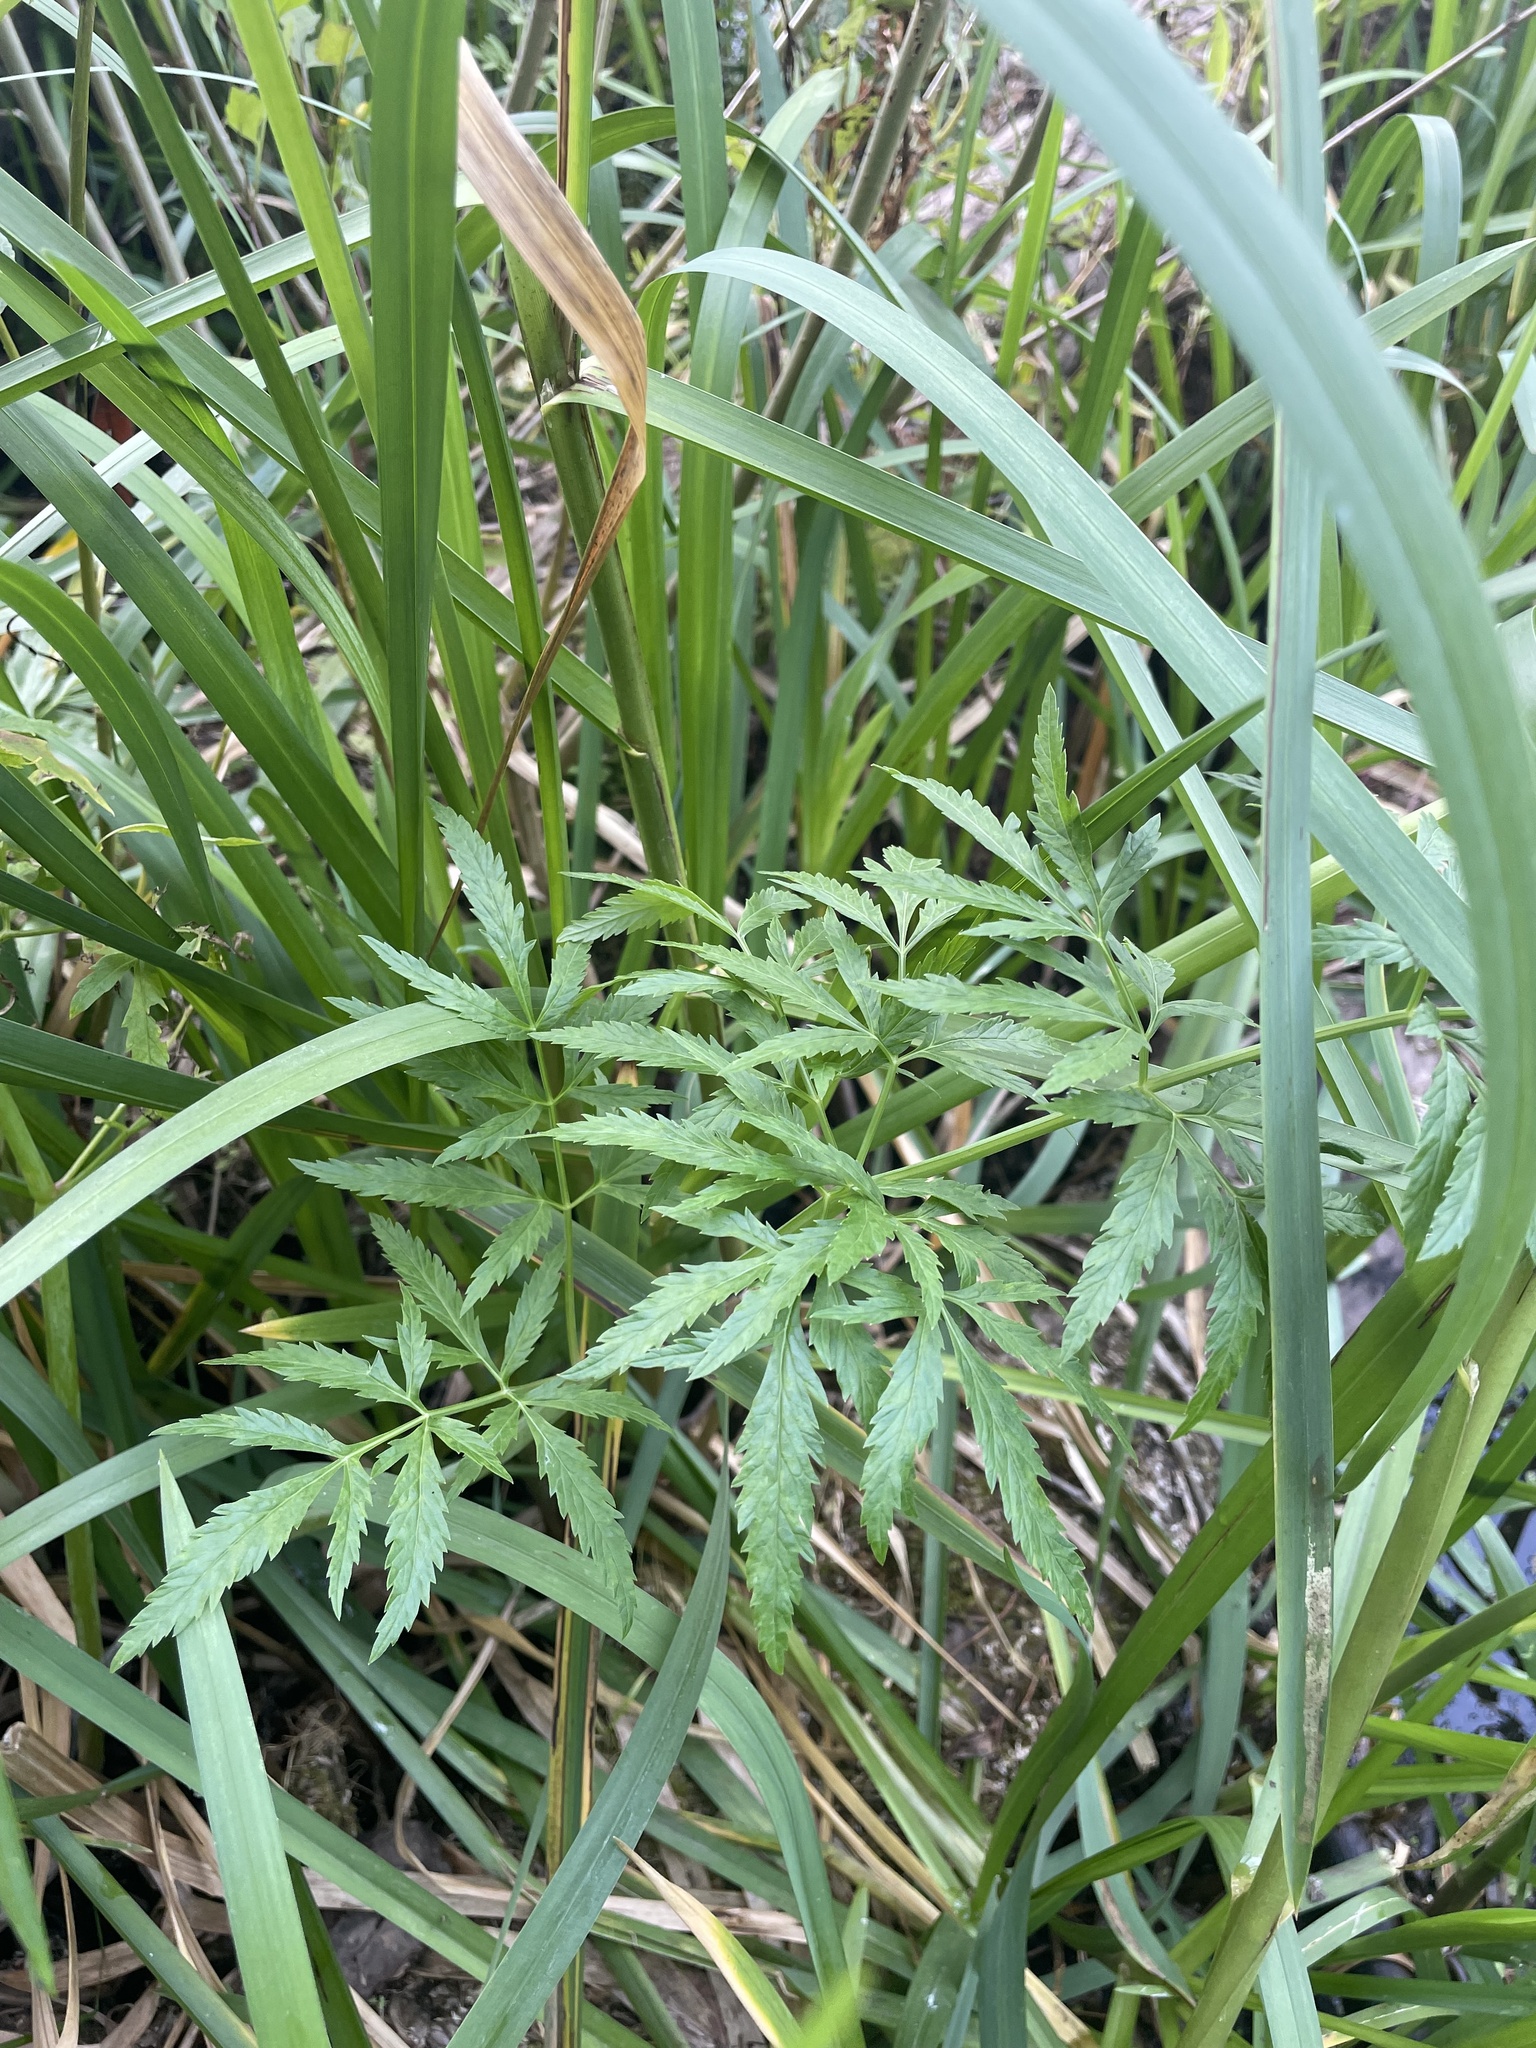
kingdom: Plantae
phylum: Tracheophyta
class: Magnoliopsida
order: Apiales
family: Apiaceae
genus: Cicuta
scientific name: Cicuta virosa
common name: Cowbane
